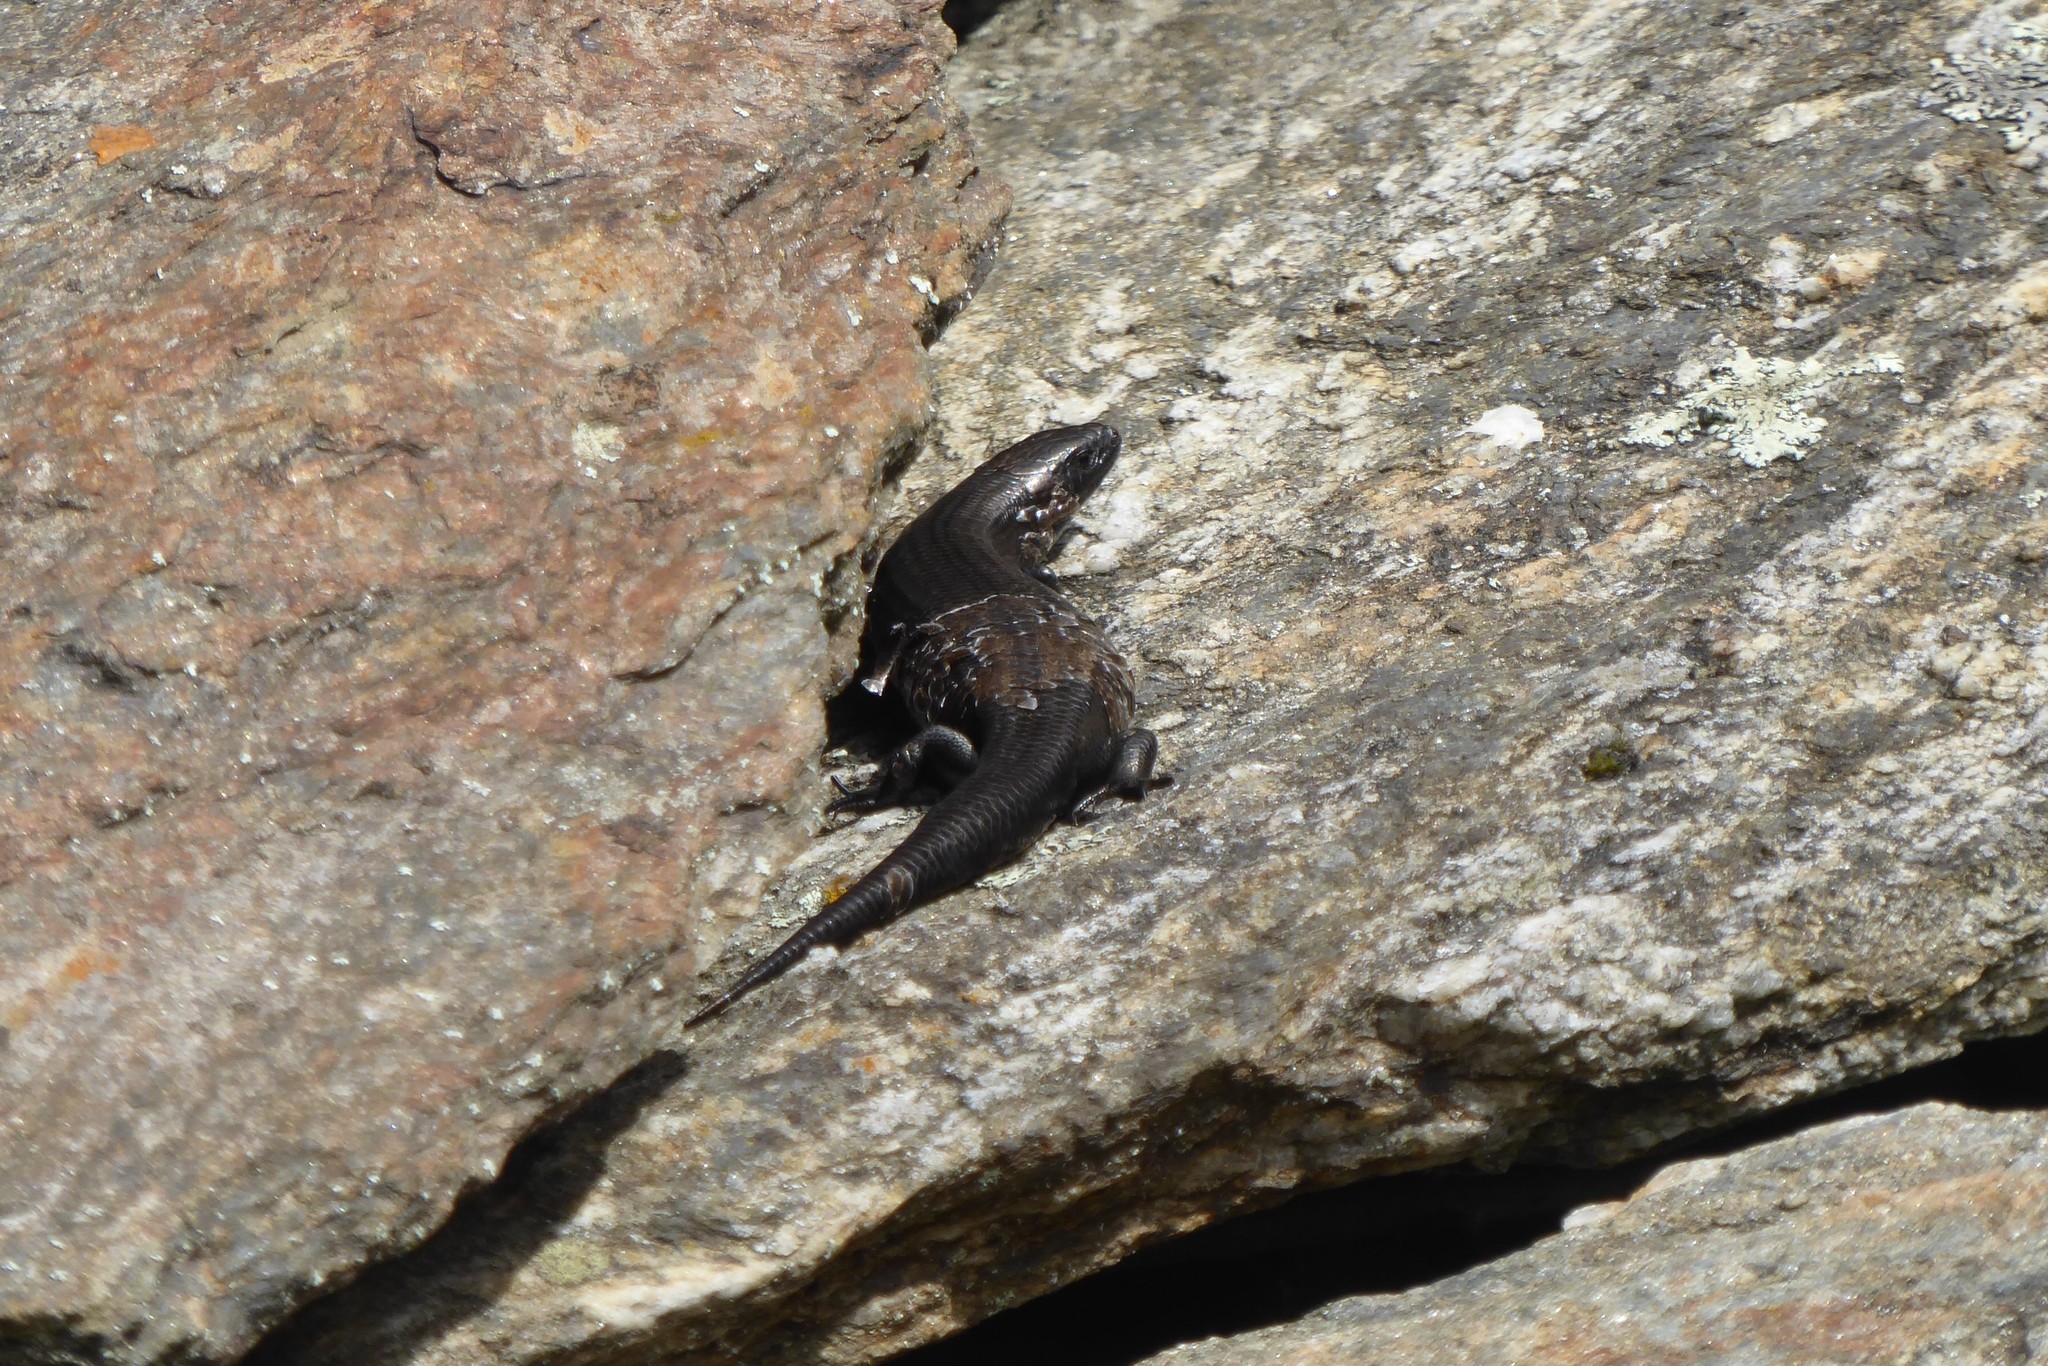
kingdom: Animalia
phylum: Chordata
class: Squamata
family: Scincidae
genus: Oligosoma
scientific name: Oligosoma polychroma
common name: Common new zealand skink
